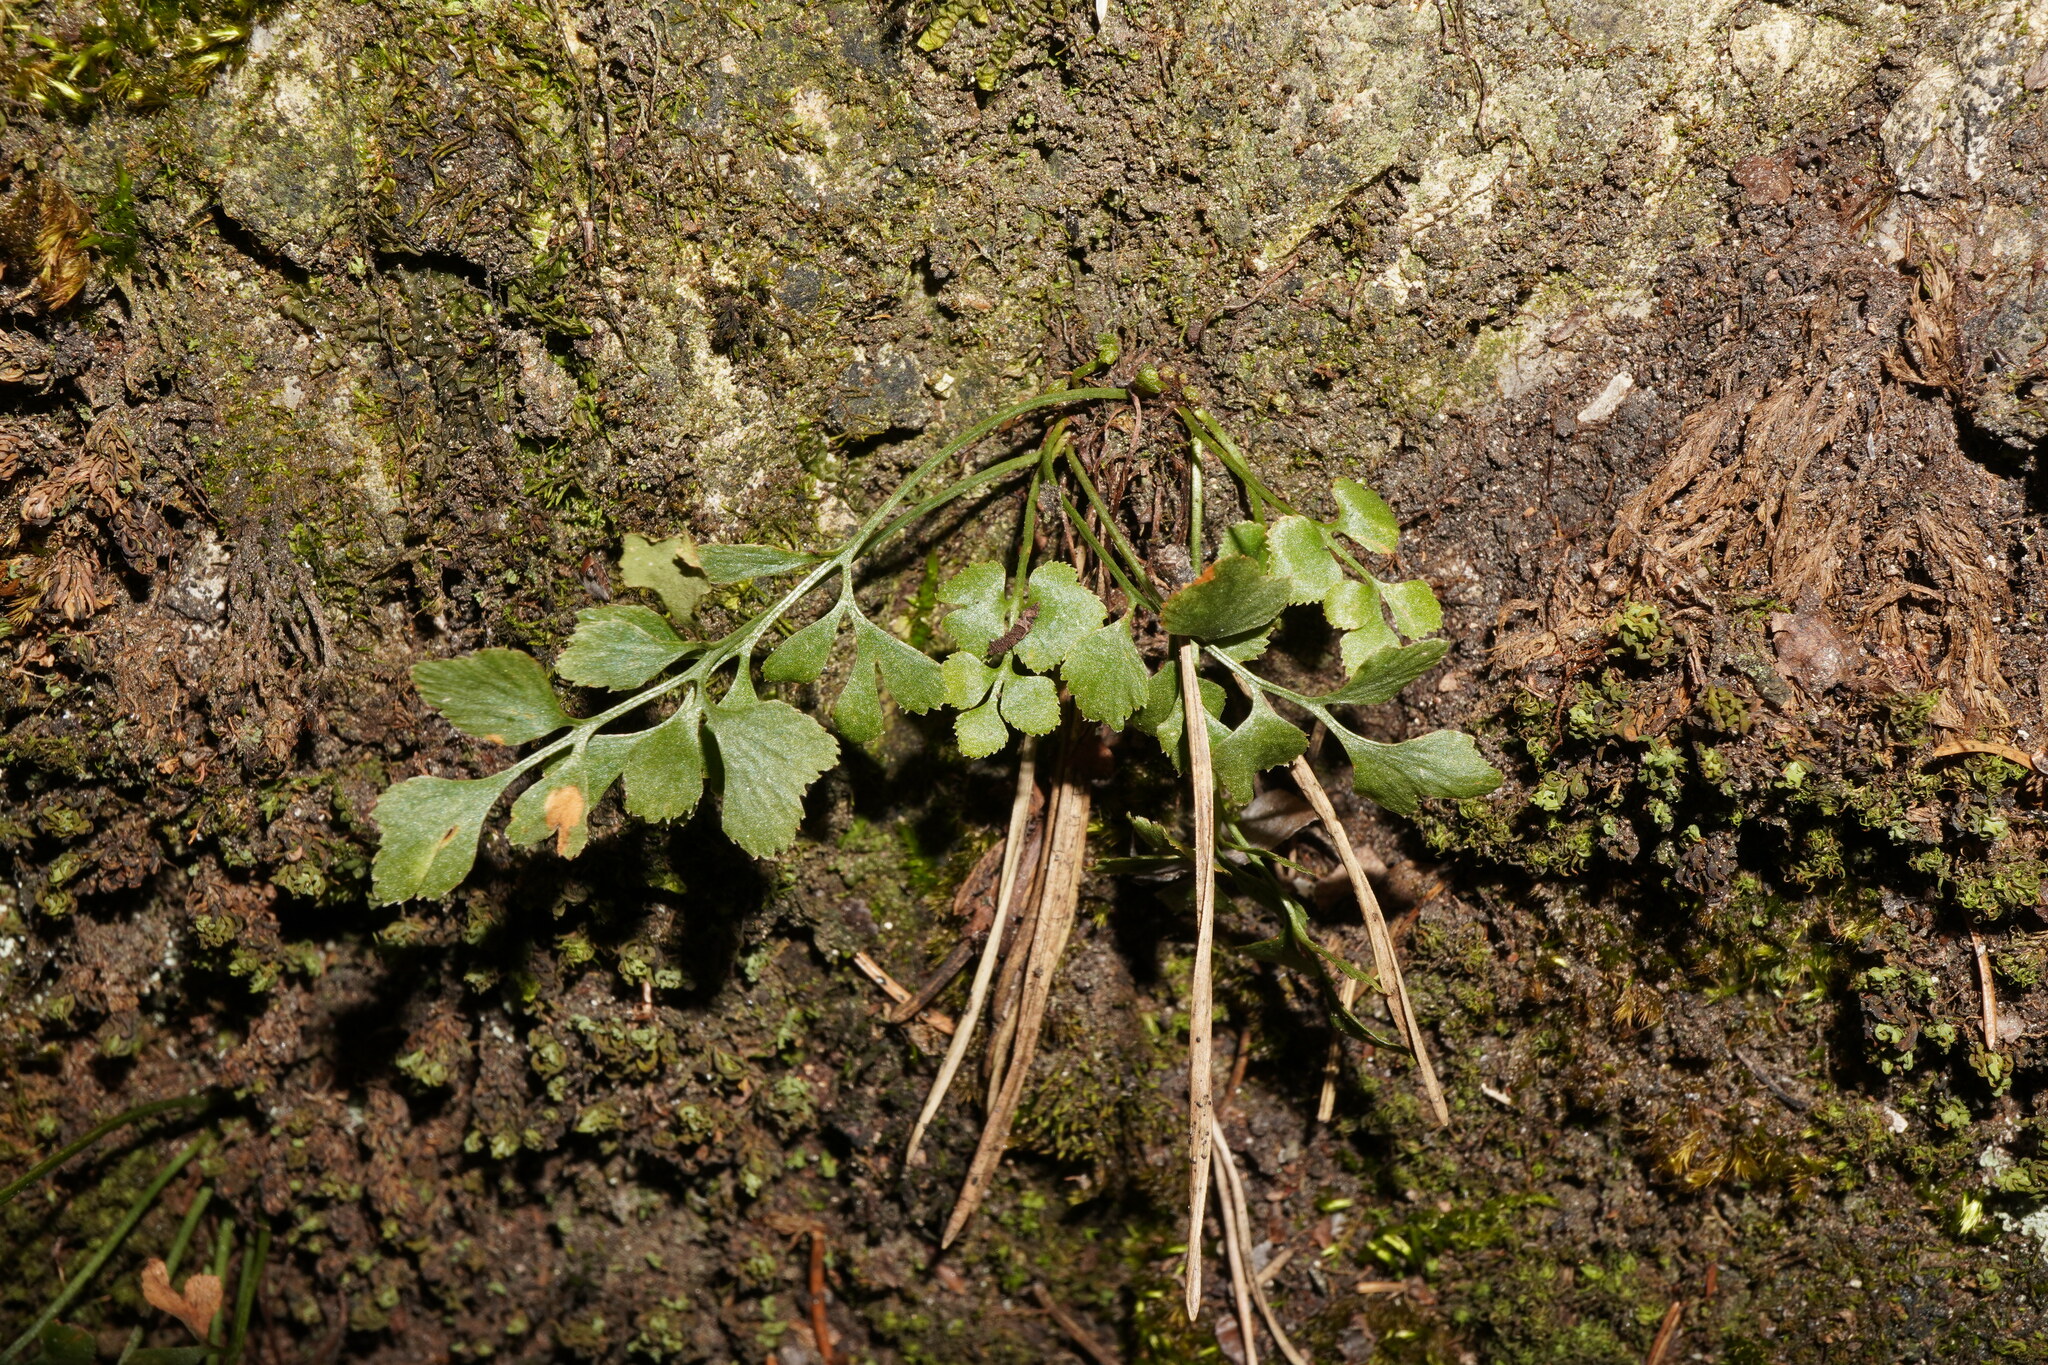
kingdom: Plantae
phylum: Tracheophyta
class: Polypodiopsida
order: Polypodiales
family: Aspleniaceae
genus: Asplenium
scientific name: Asplenium ruta-muraria
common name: Wall-rue
